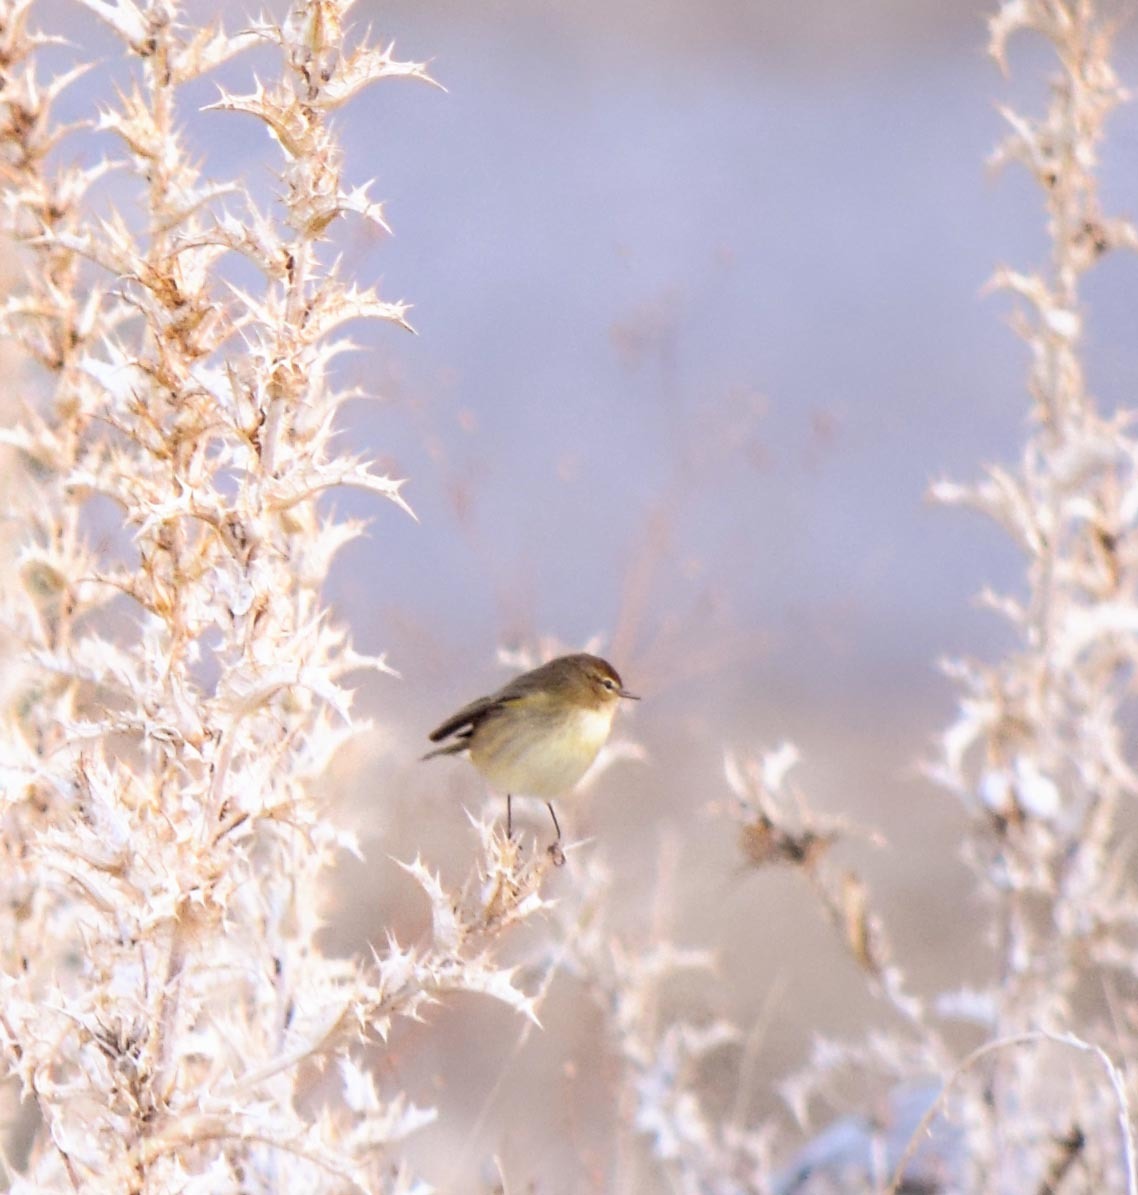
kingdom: Animalia
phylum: Chordata
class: Aves
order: Passeriformes
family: Phylloscopidae
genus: Phylloscopus
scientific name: Phylloscopus collybita
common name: Common chiffchaff
